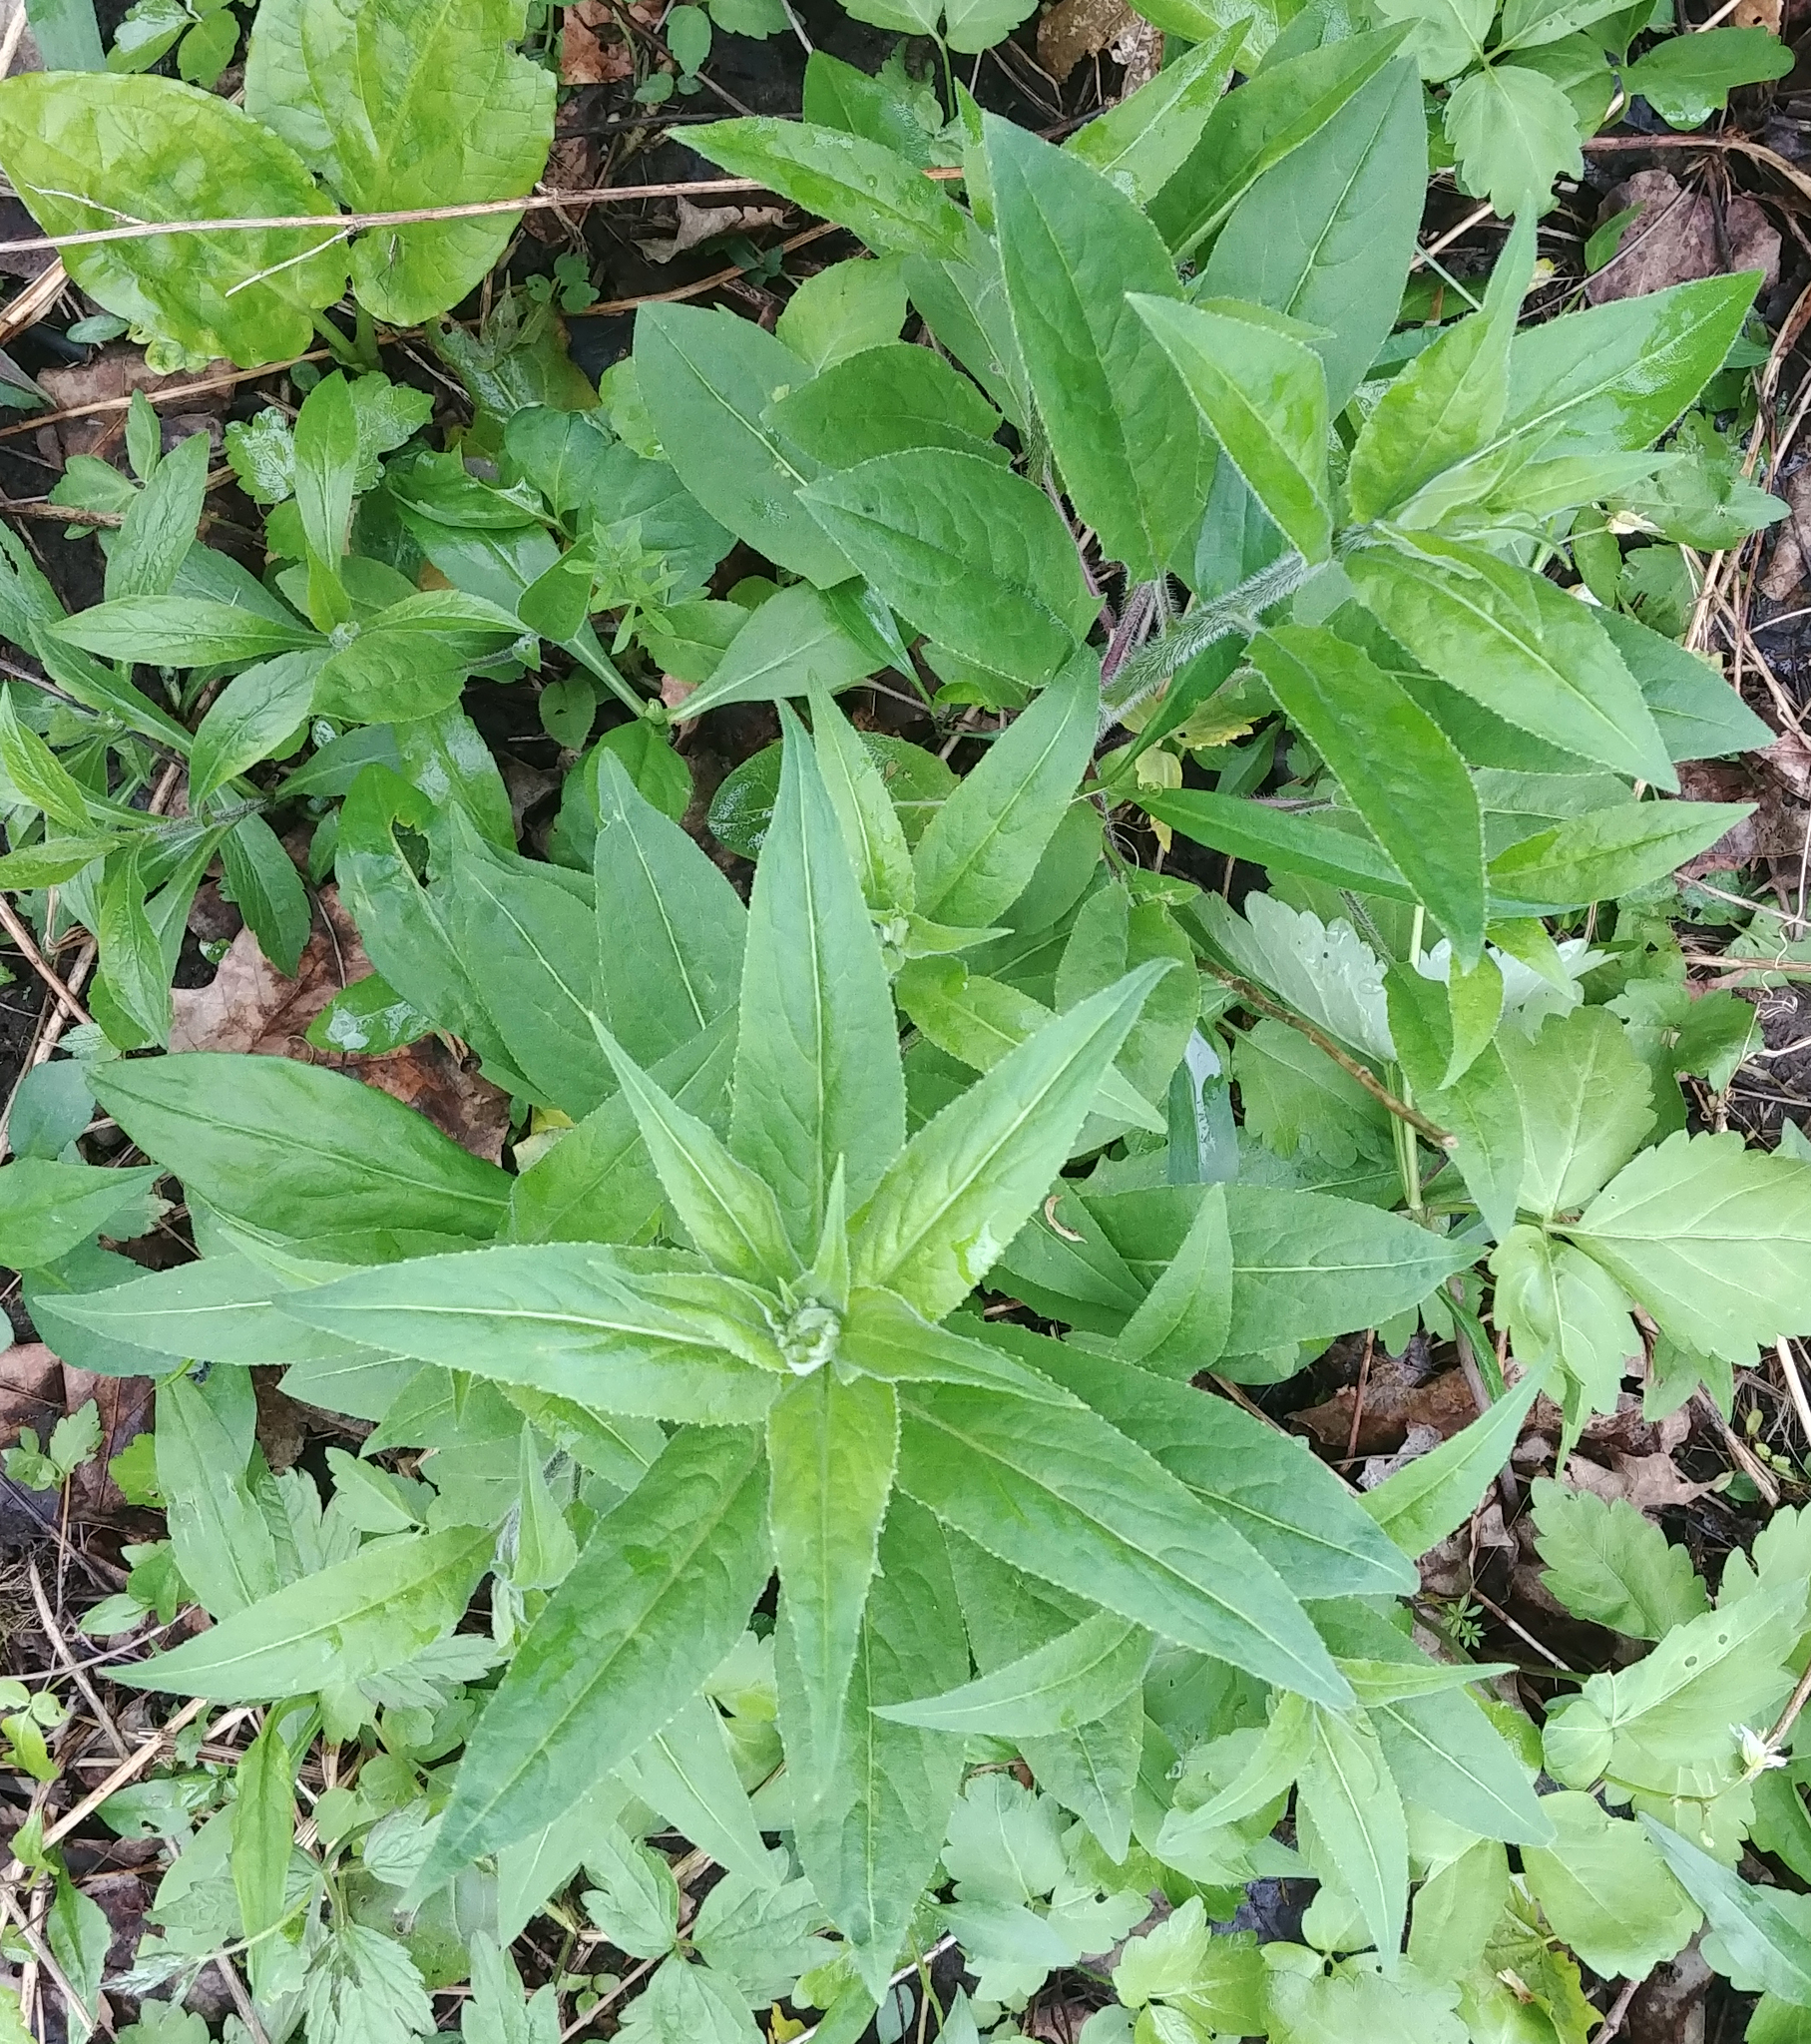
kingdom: Plantae
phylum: Tracheophyta
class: Magnoliopsida
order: Brassicales
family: Brassicaceae
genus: Hesperis
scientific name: Hesperis matronalis
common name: Dame's-violet
